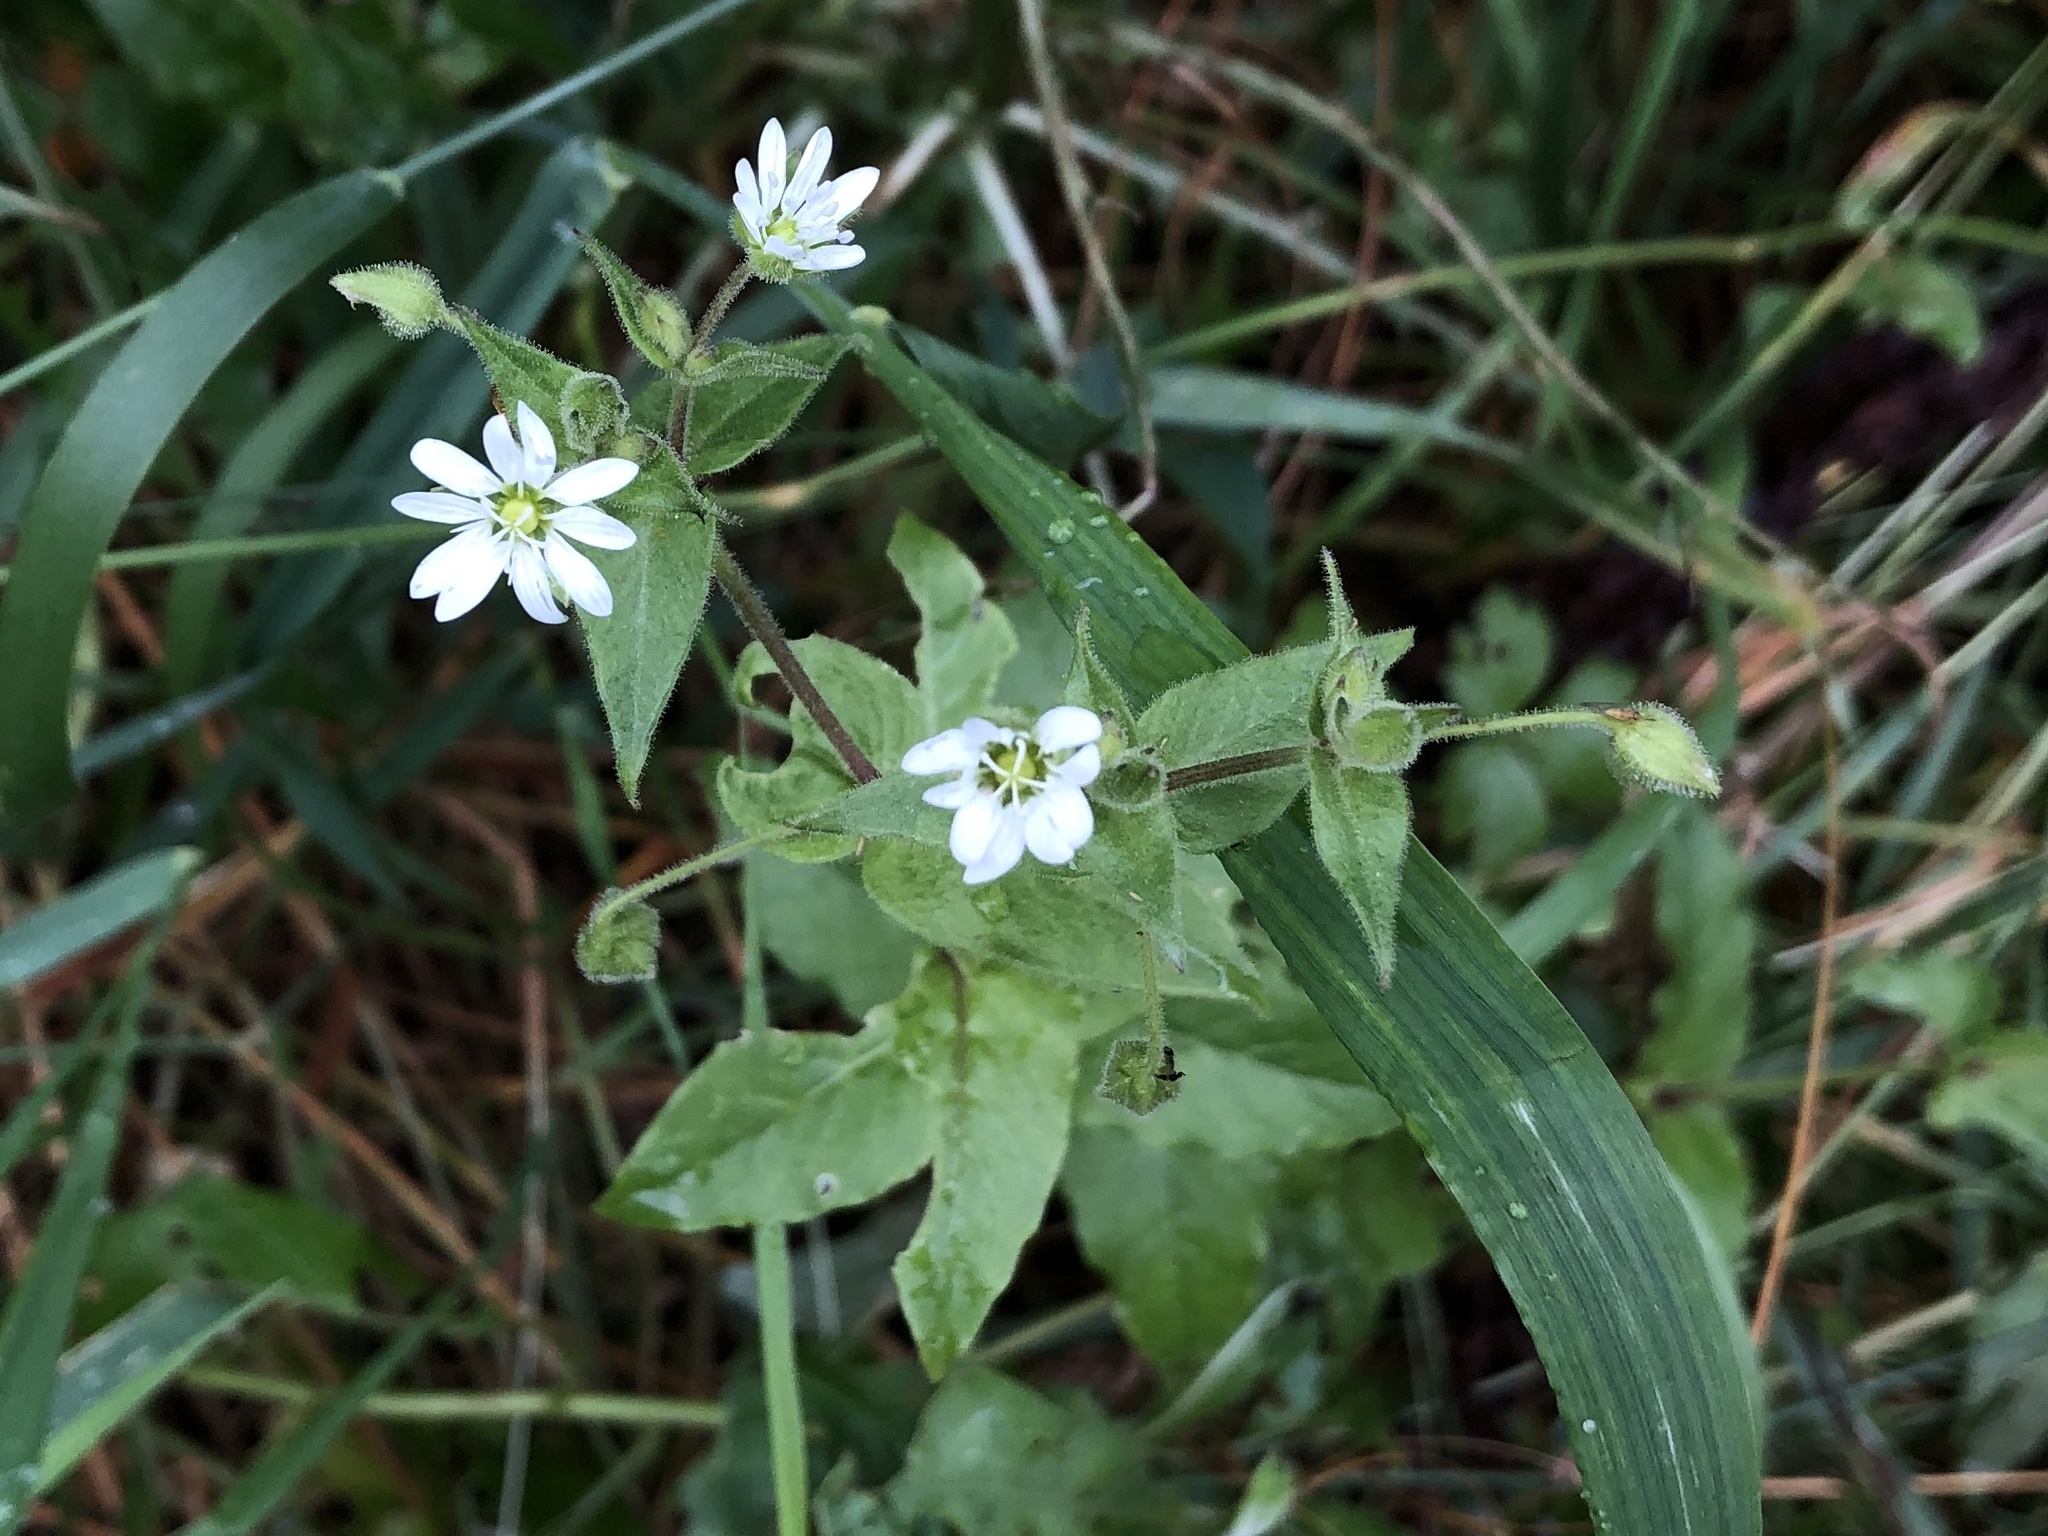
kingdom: Plantae
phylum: Tracheophyta
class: Magnoliopsida
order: Caryophyllales
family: Caryophyllaceae
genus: Stellaria
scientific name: Stellaria aquatica
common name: Water chickweed
